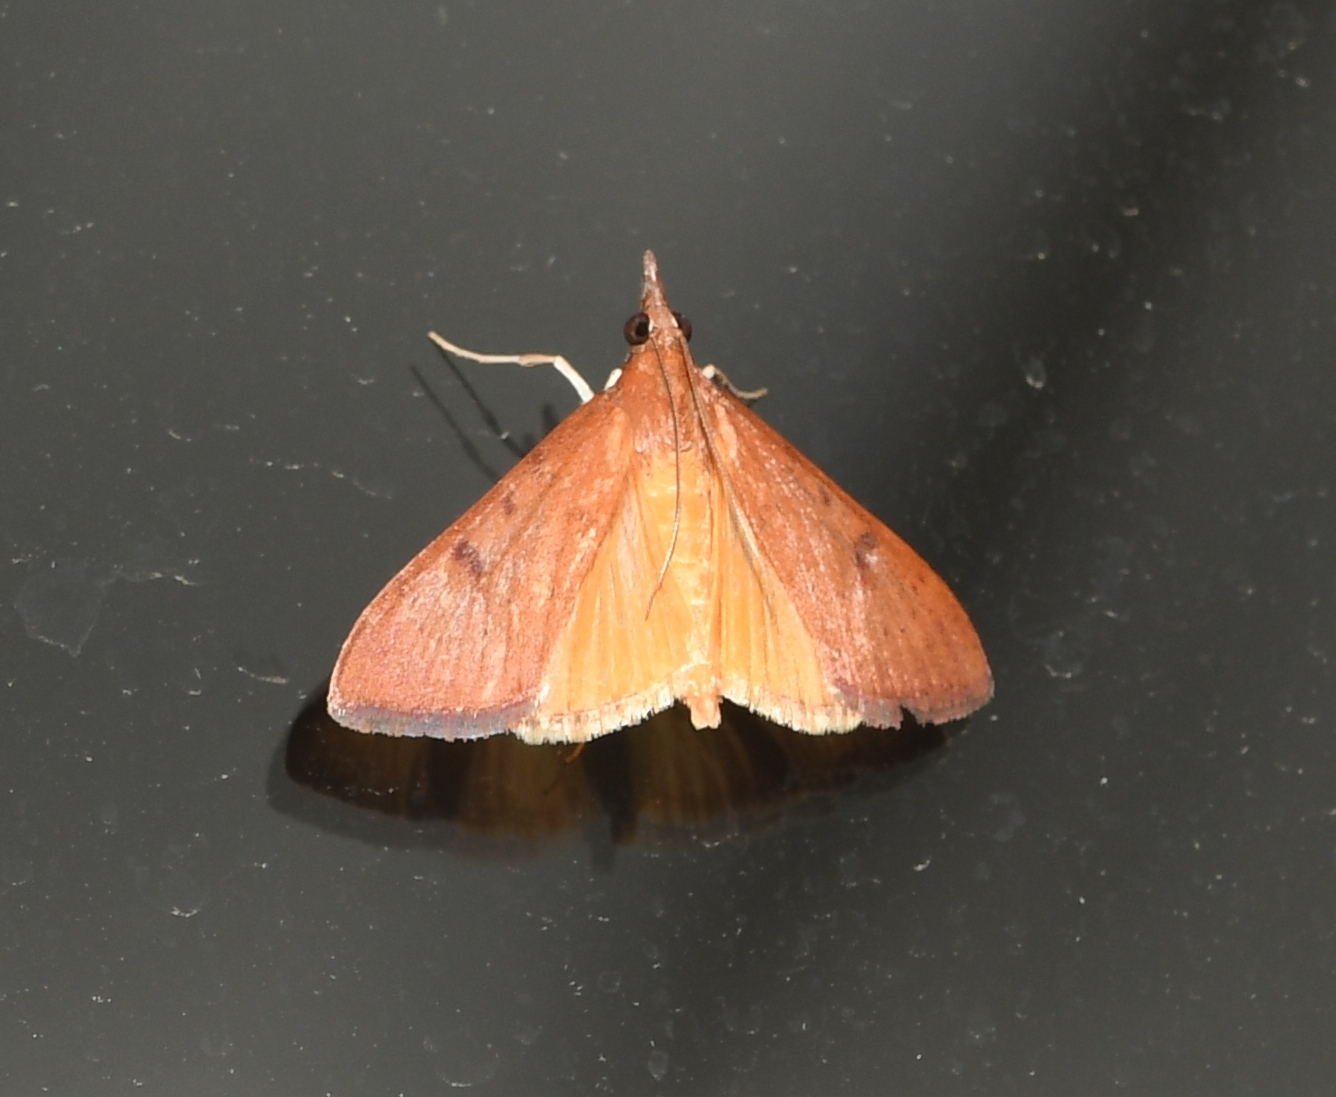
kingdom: Animalia
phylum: Arthropoda
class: Insecta
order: Lepidoptera
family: Crambidae
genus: Uresiphita
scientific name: Uresiphita reversalis
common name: Genista broom moth
